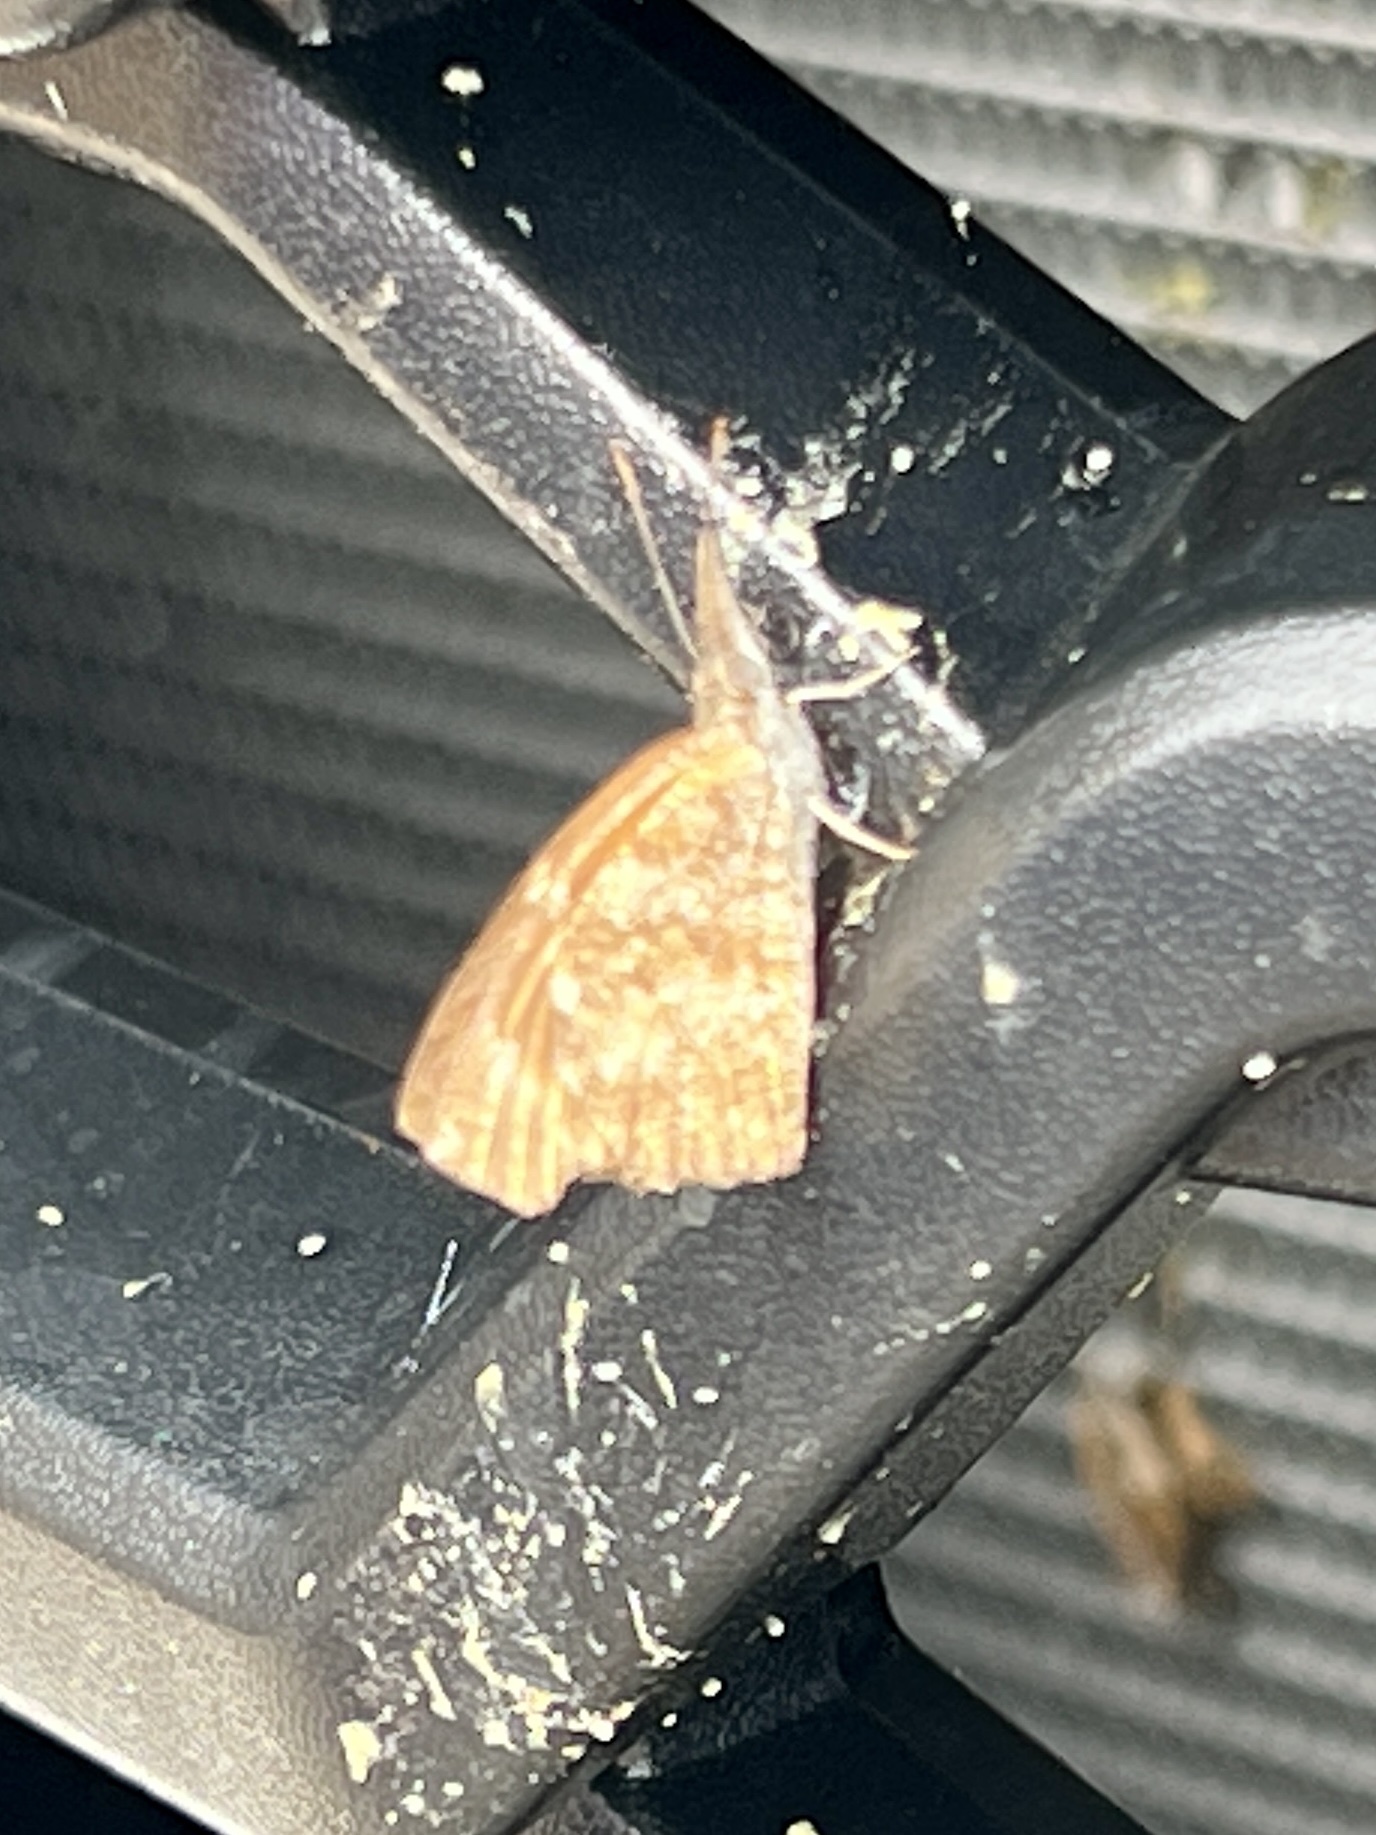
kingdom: Animalia
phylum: Arthropoda
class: Insecta
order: Lepidoptera
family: Nymphalidae
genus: Libytheana
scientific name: Libytheana carinenta
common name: American snout
